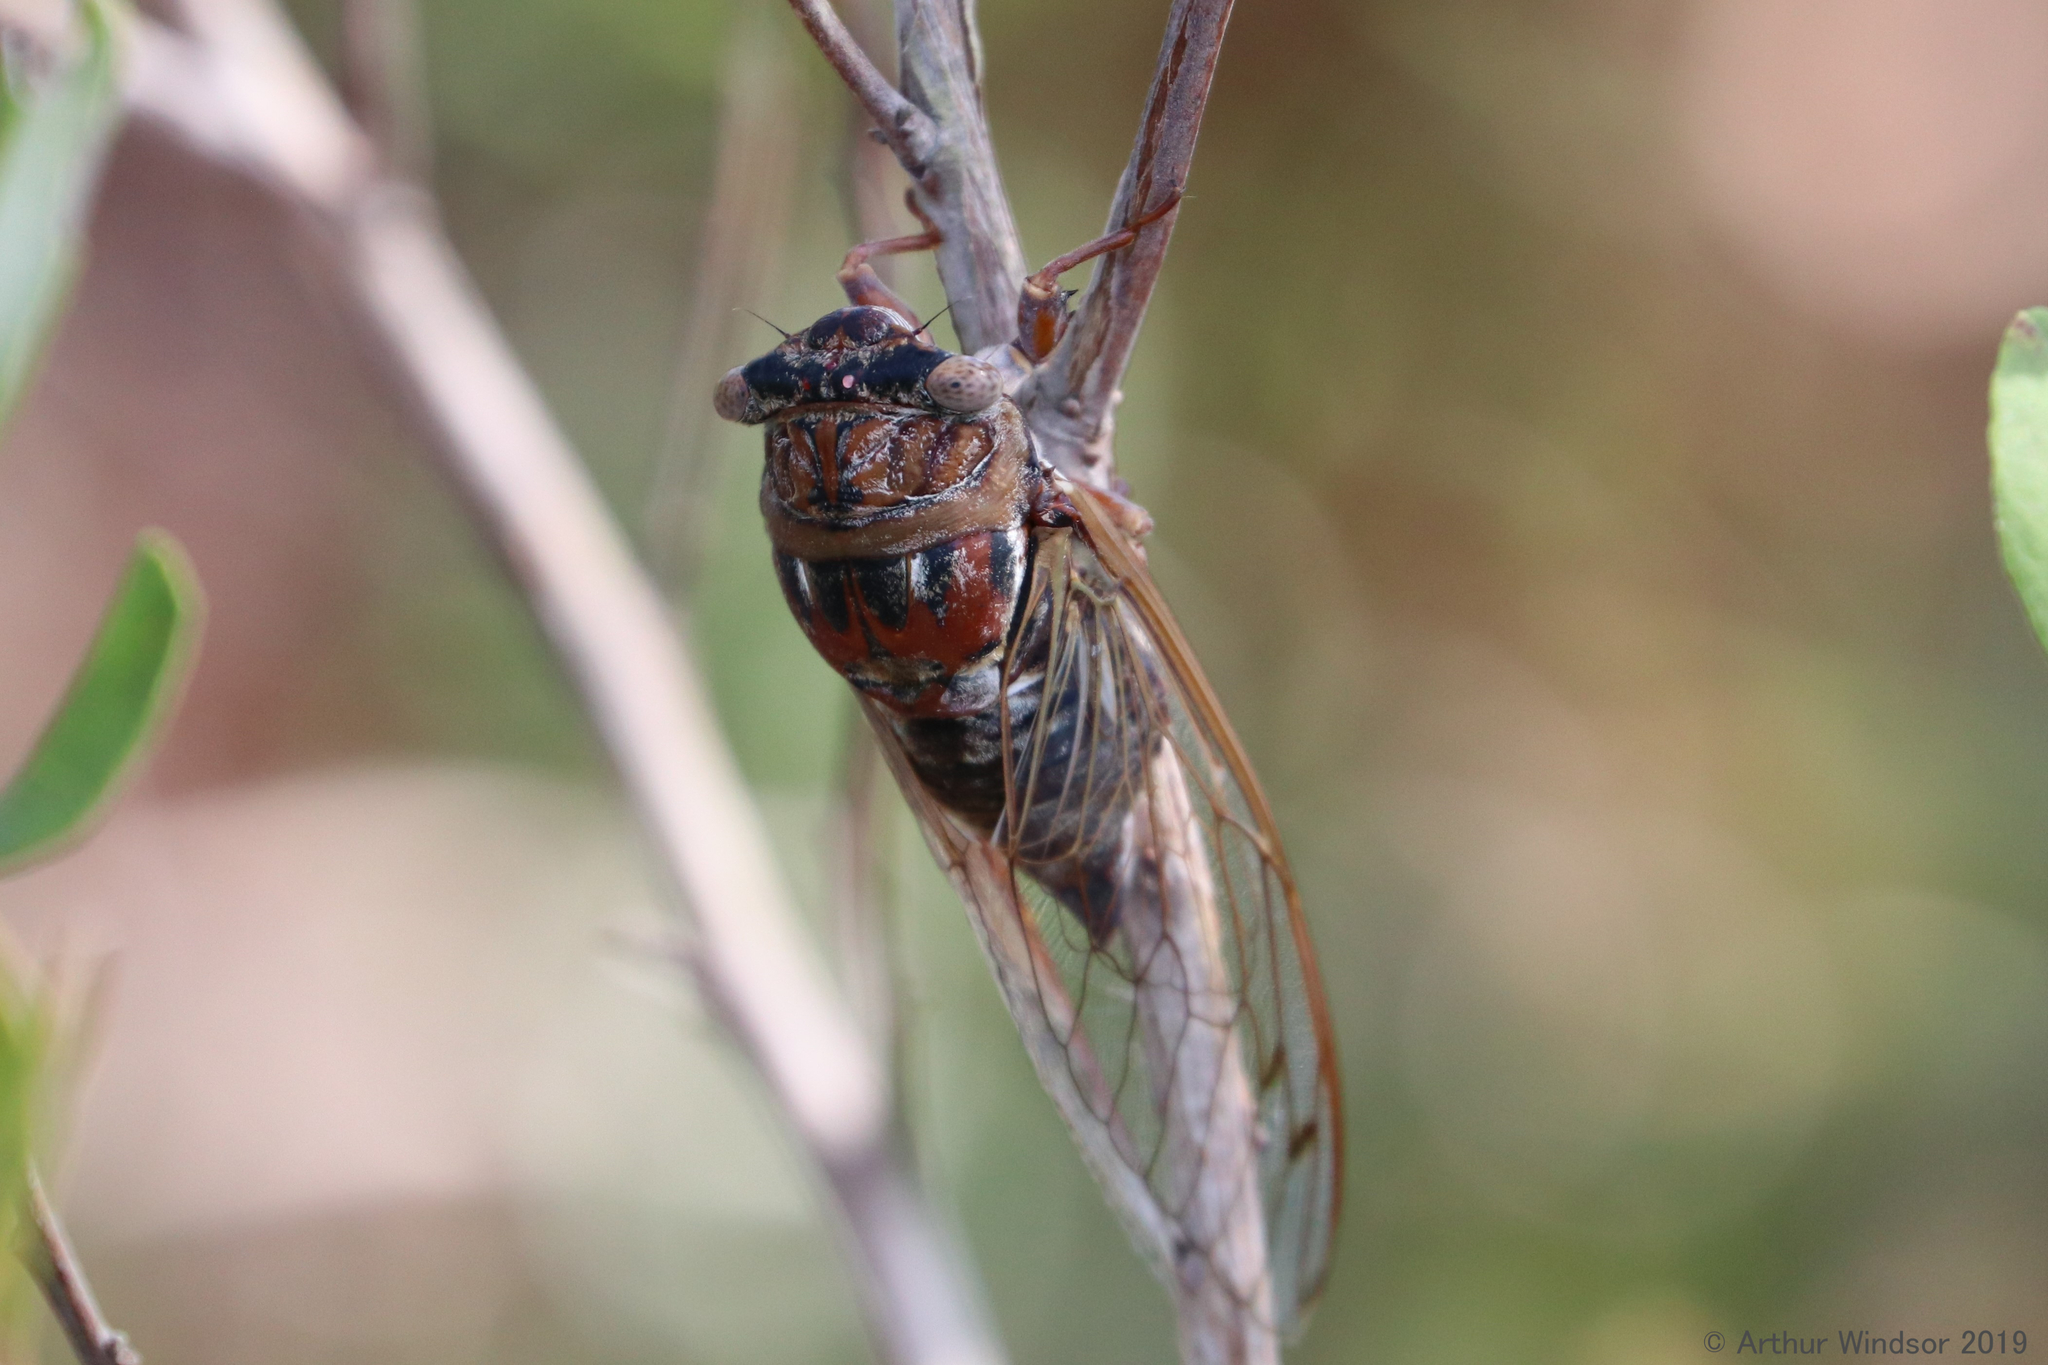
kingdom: Animalia
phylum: Arthropoda
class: Insecta
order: Hemiptera
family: Cicadidae
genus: Diceroprocta
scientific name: Diceroprocta olympusa
